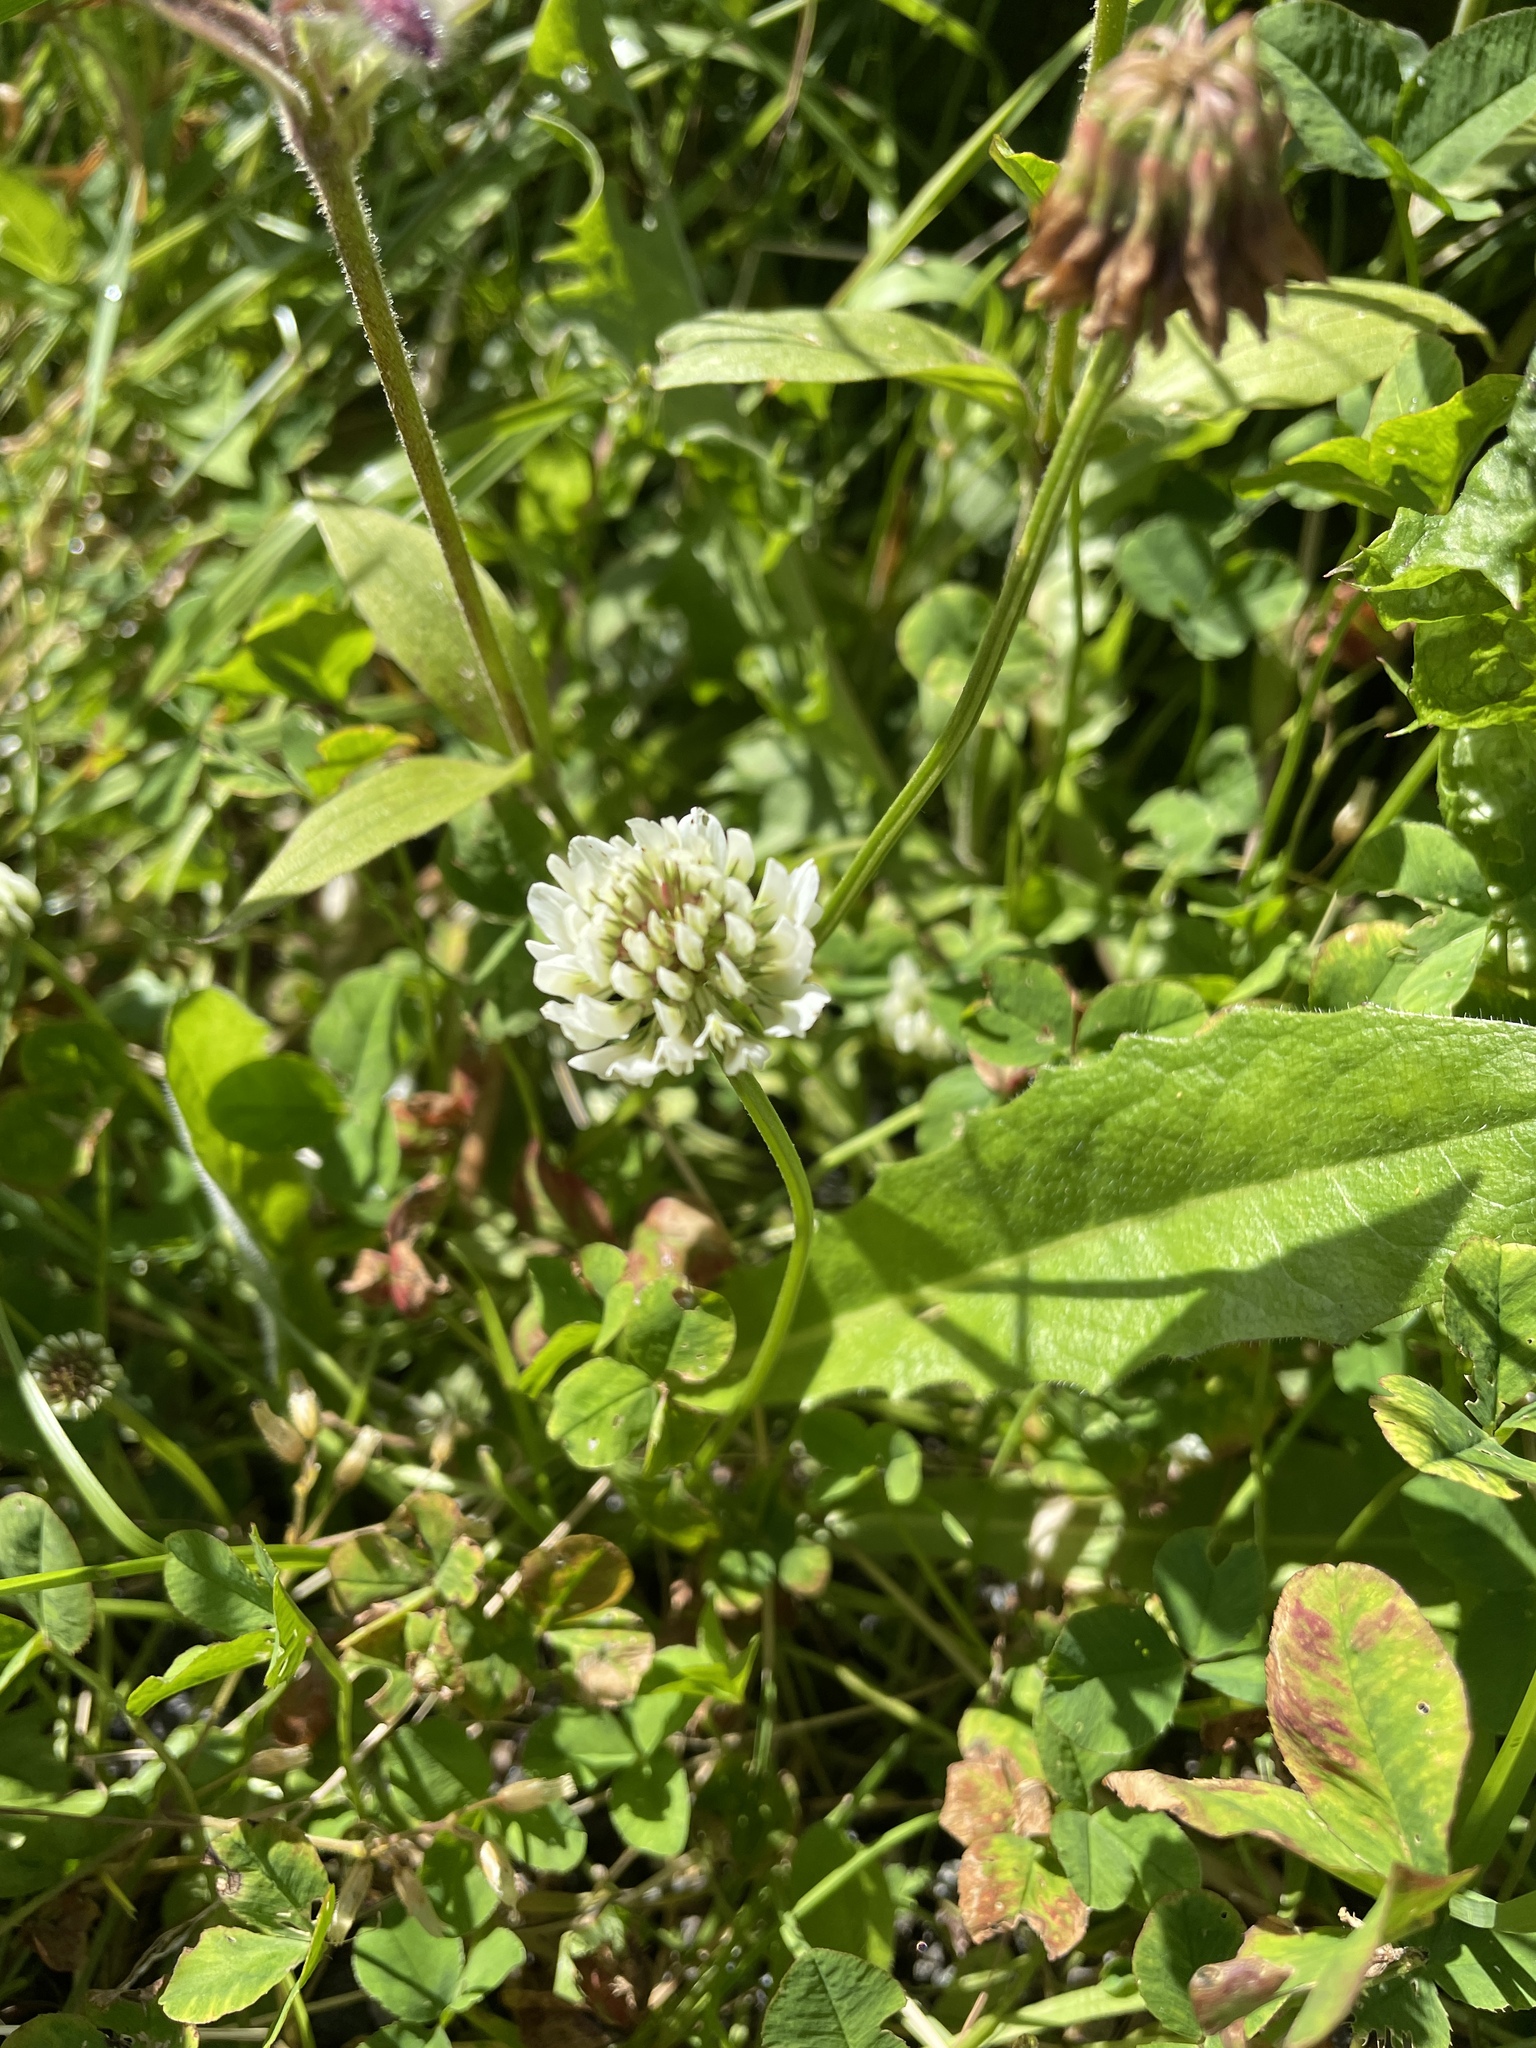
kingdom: Plantae
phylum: Tracheophyta
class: Magnoliopsida
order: Fabales
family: Fabaceae
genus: Trifolium
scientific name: Trifolium repens
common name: White clover
